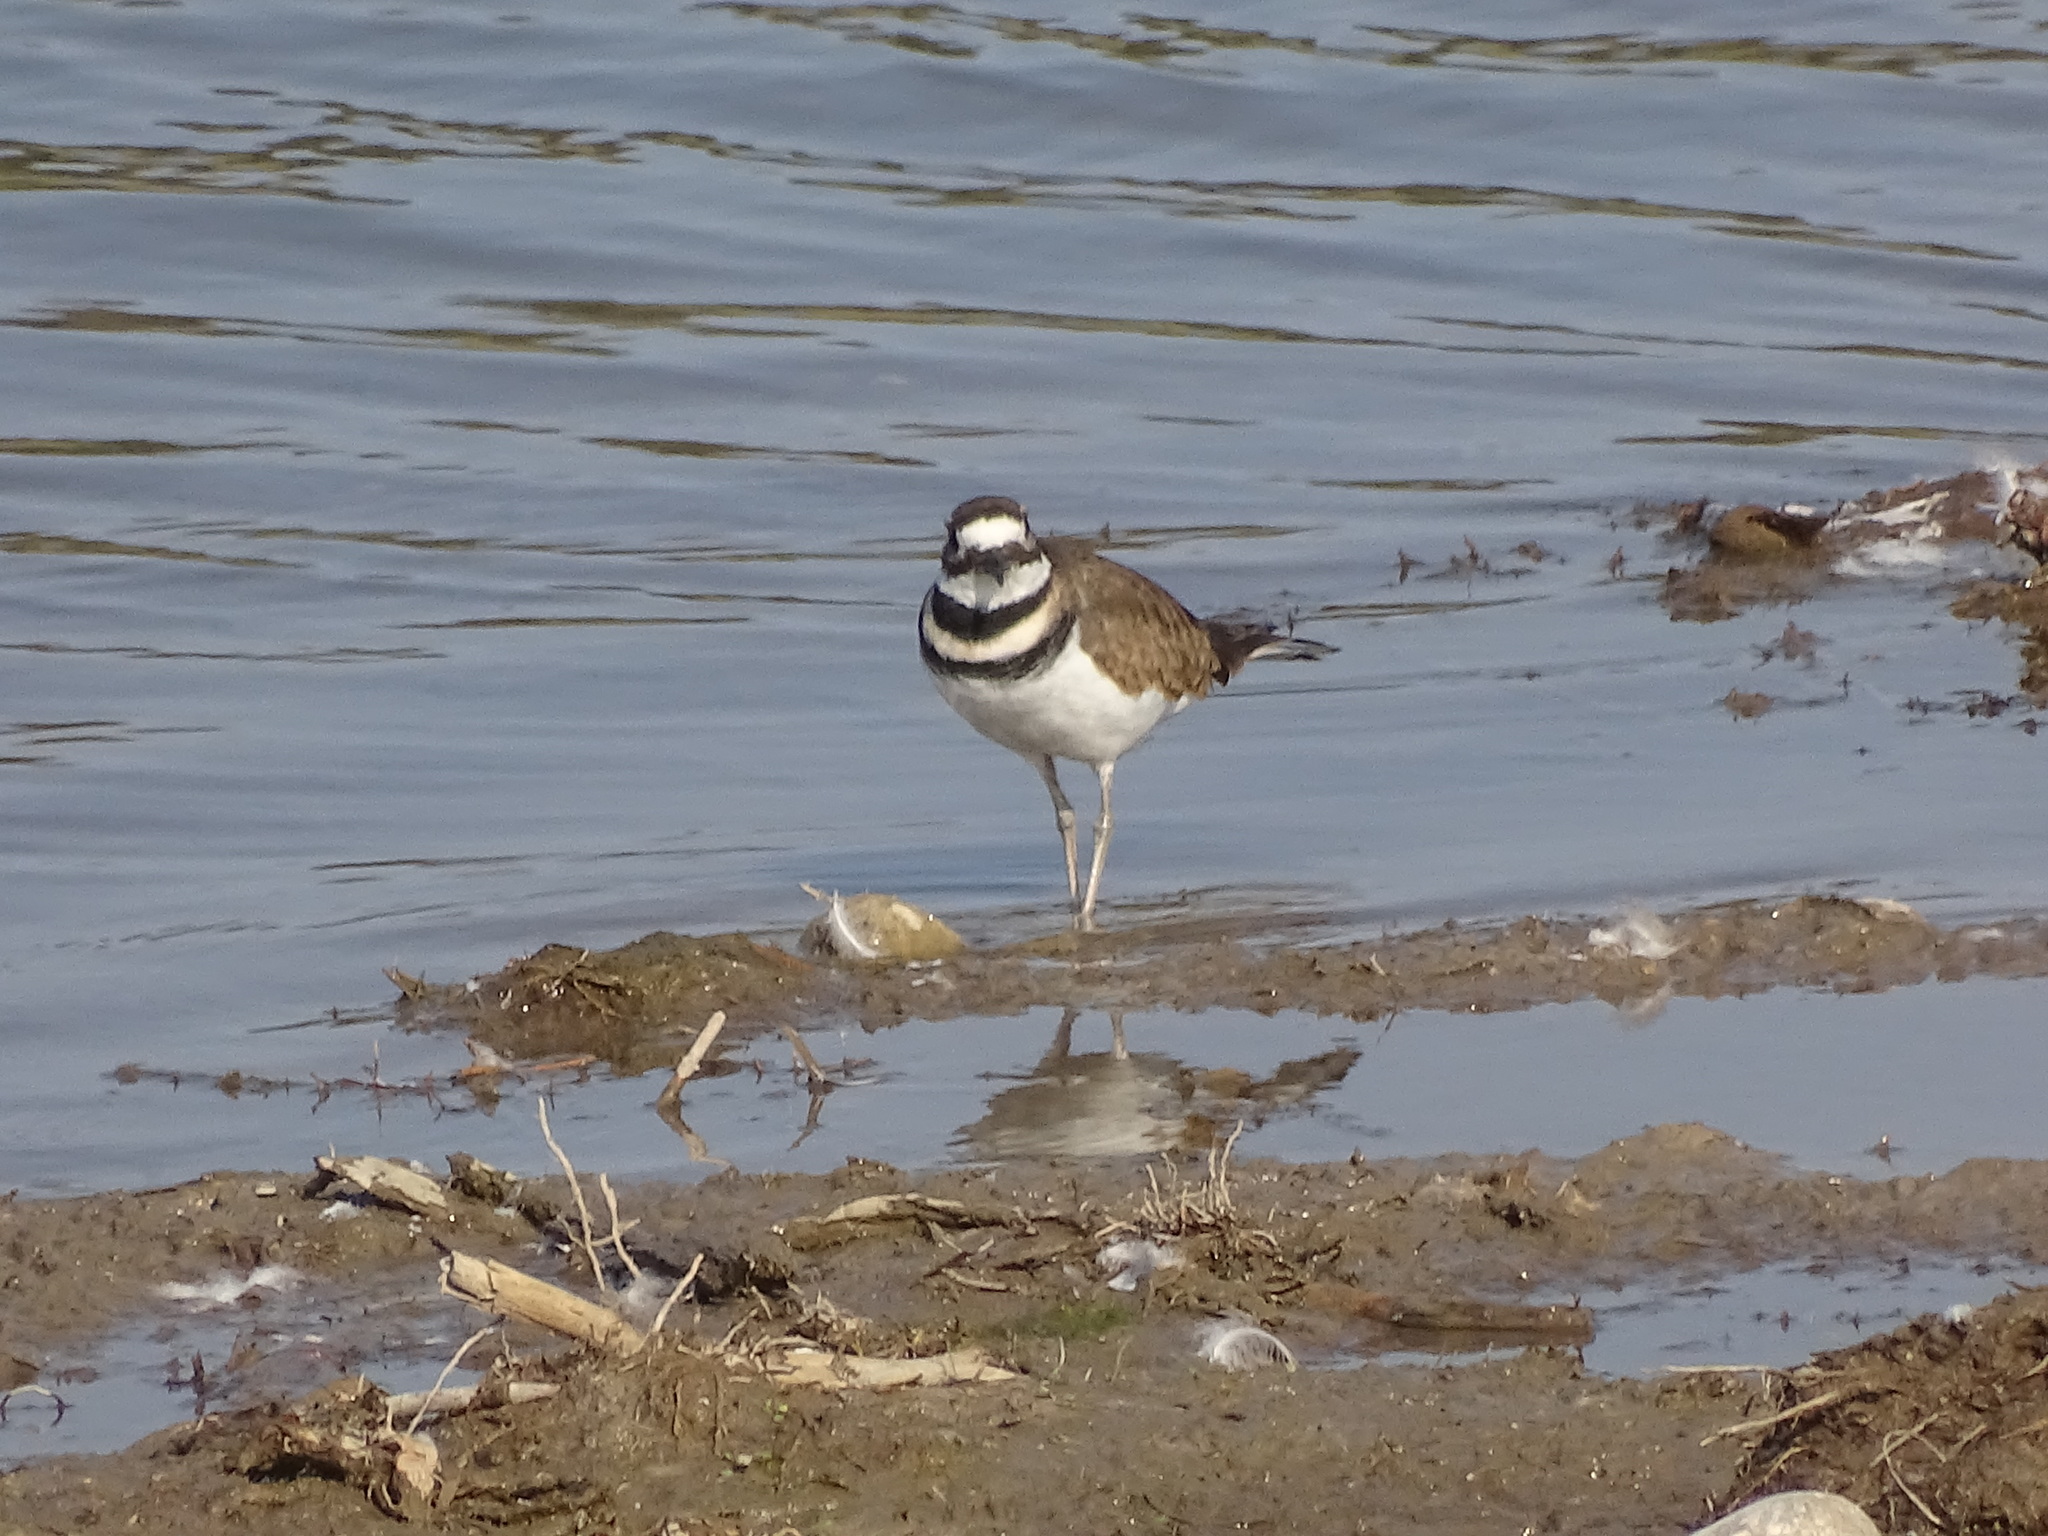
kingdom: Animalia
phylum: Chordata
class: Aves
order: Charadriiformes
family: Charadriidae
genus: Charadrius
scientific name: Charadrius vociferus
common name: Killdeer
